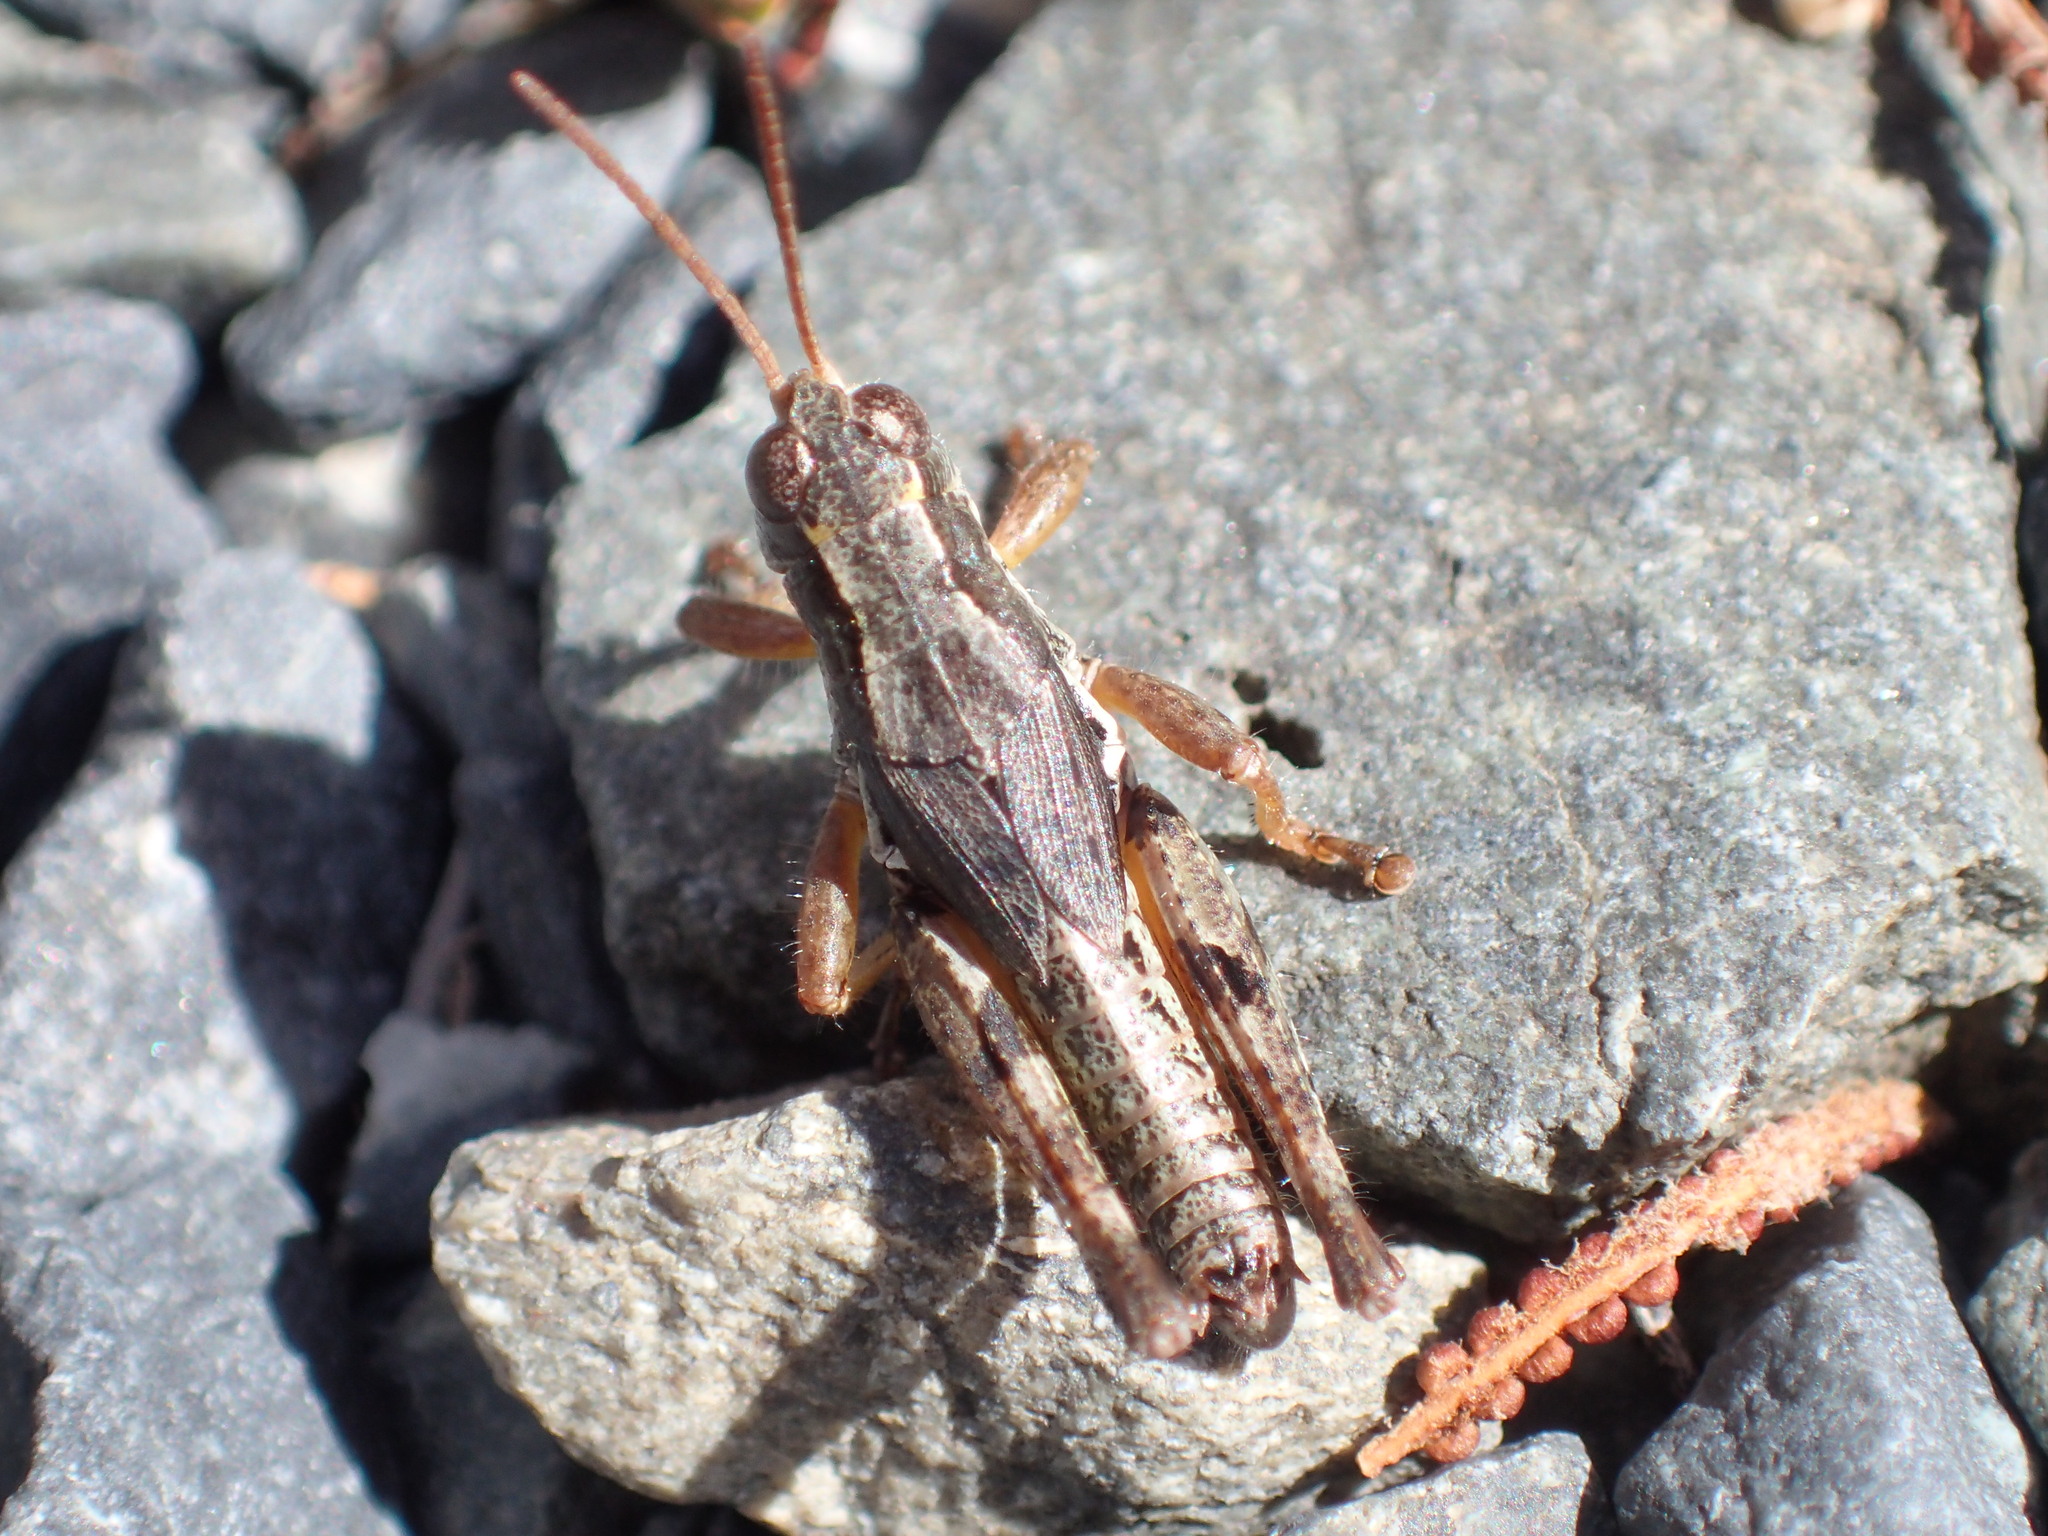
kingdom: Animalia
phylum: Arthropoda
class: Insecta
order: Orthoptera
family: Acrididae
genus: Phaulacridium
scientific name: Phaulacridium marginale
